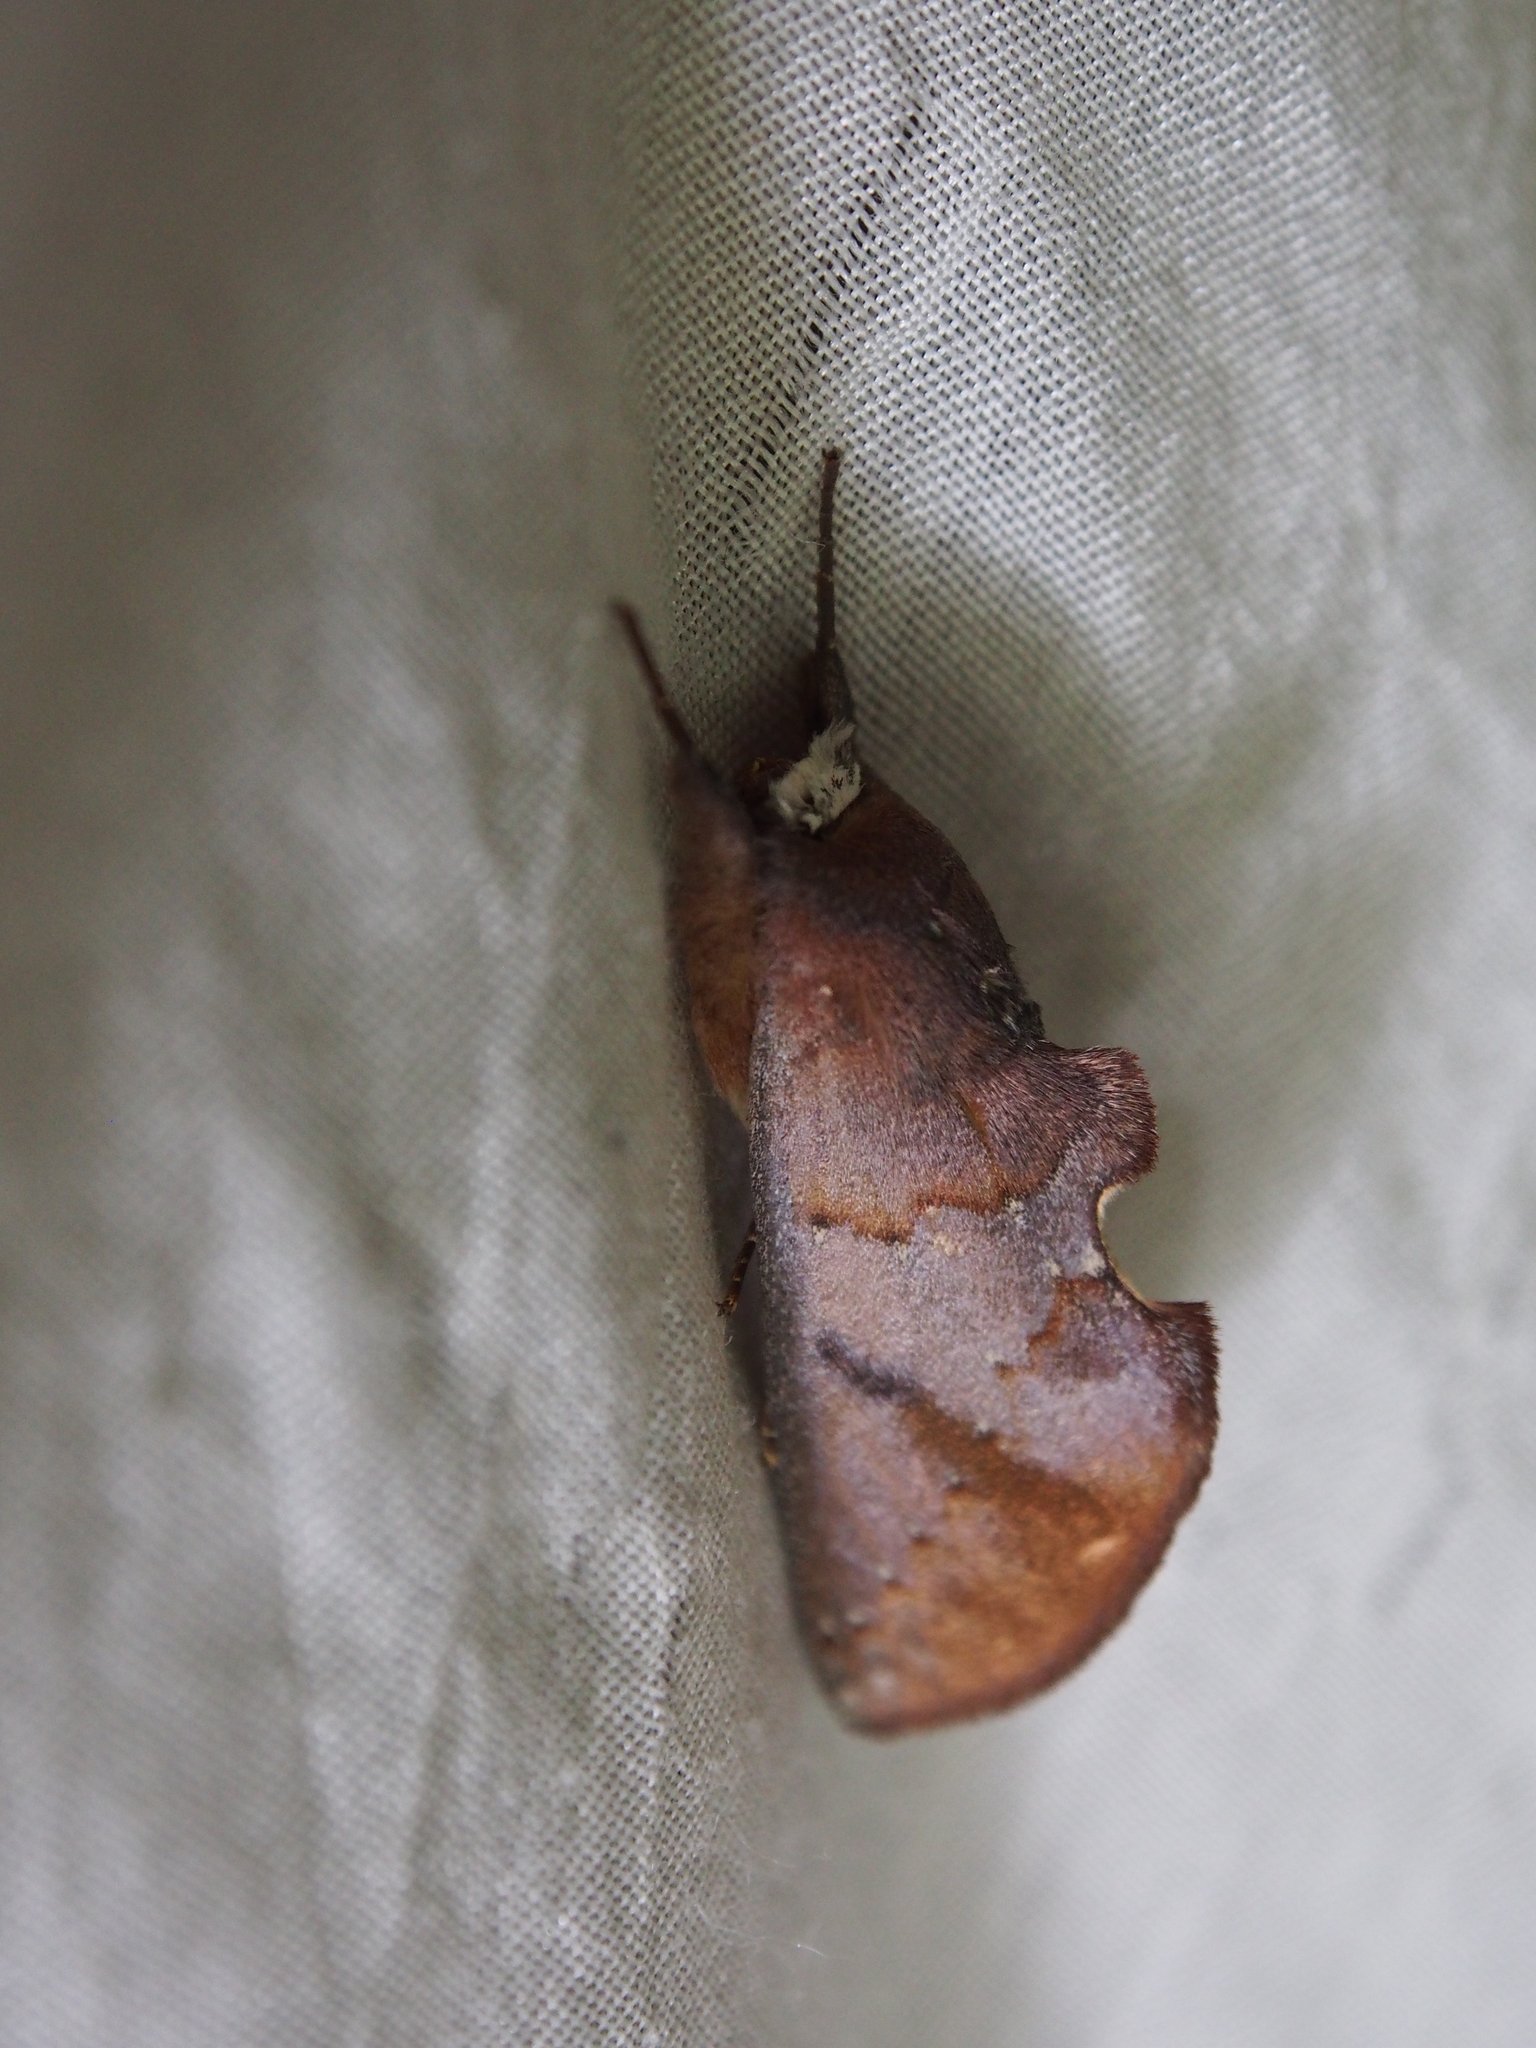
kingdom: Animalia
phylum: Arthropoda
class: Insecta
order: Lepidoptera
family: Notodontidae
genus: Hemiceras
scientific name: Hemiceras nigrescens
